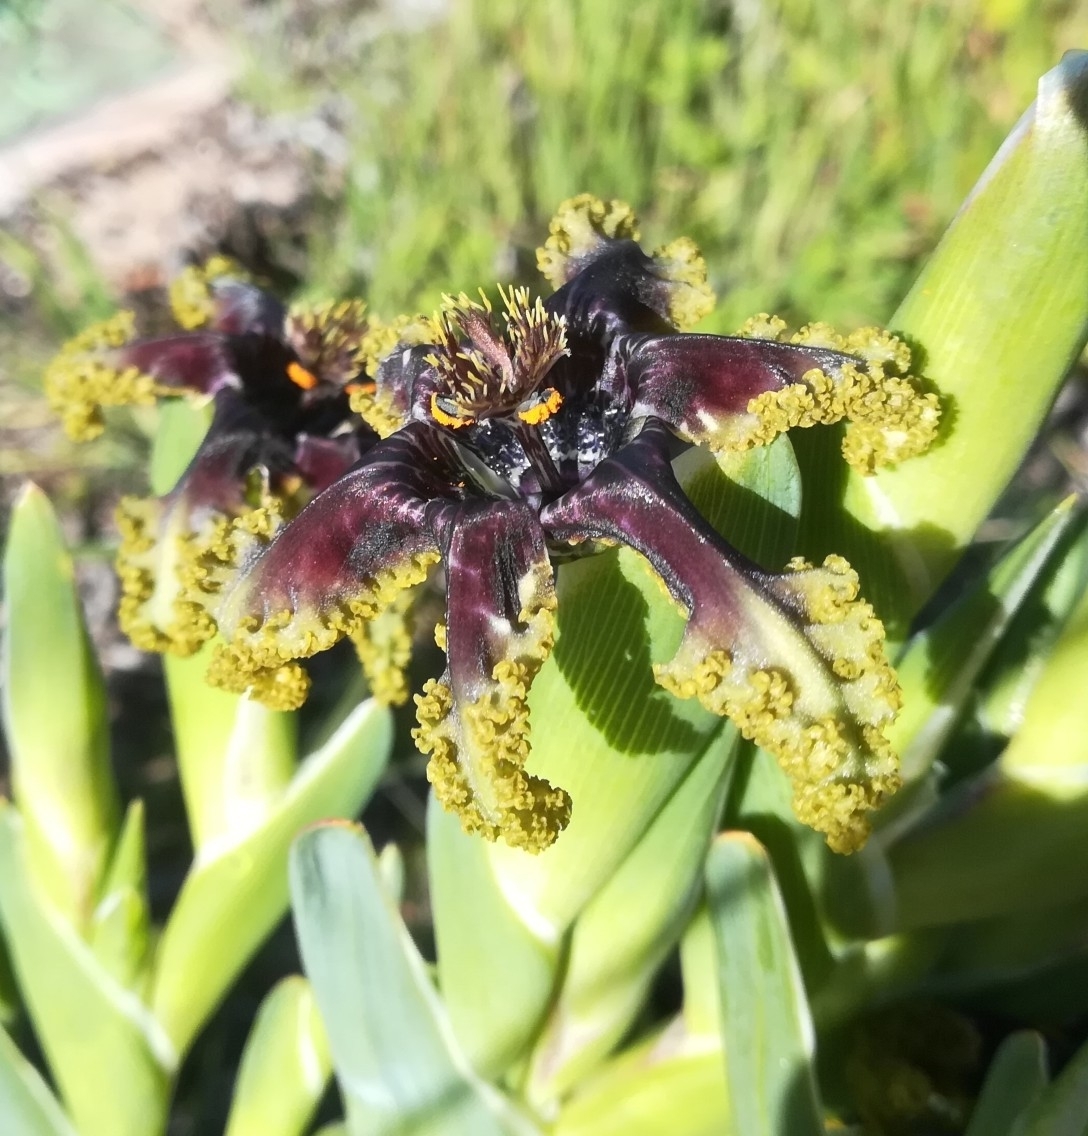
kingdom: Plantae
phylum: Tracheophyta
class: Liliopsida
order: Asparagales
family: Iridaceae
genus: Ferraria
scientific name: Ferraria crispa
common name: Black-flag
